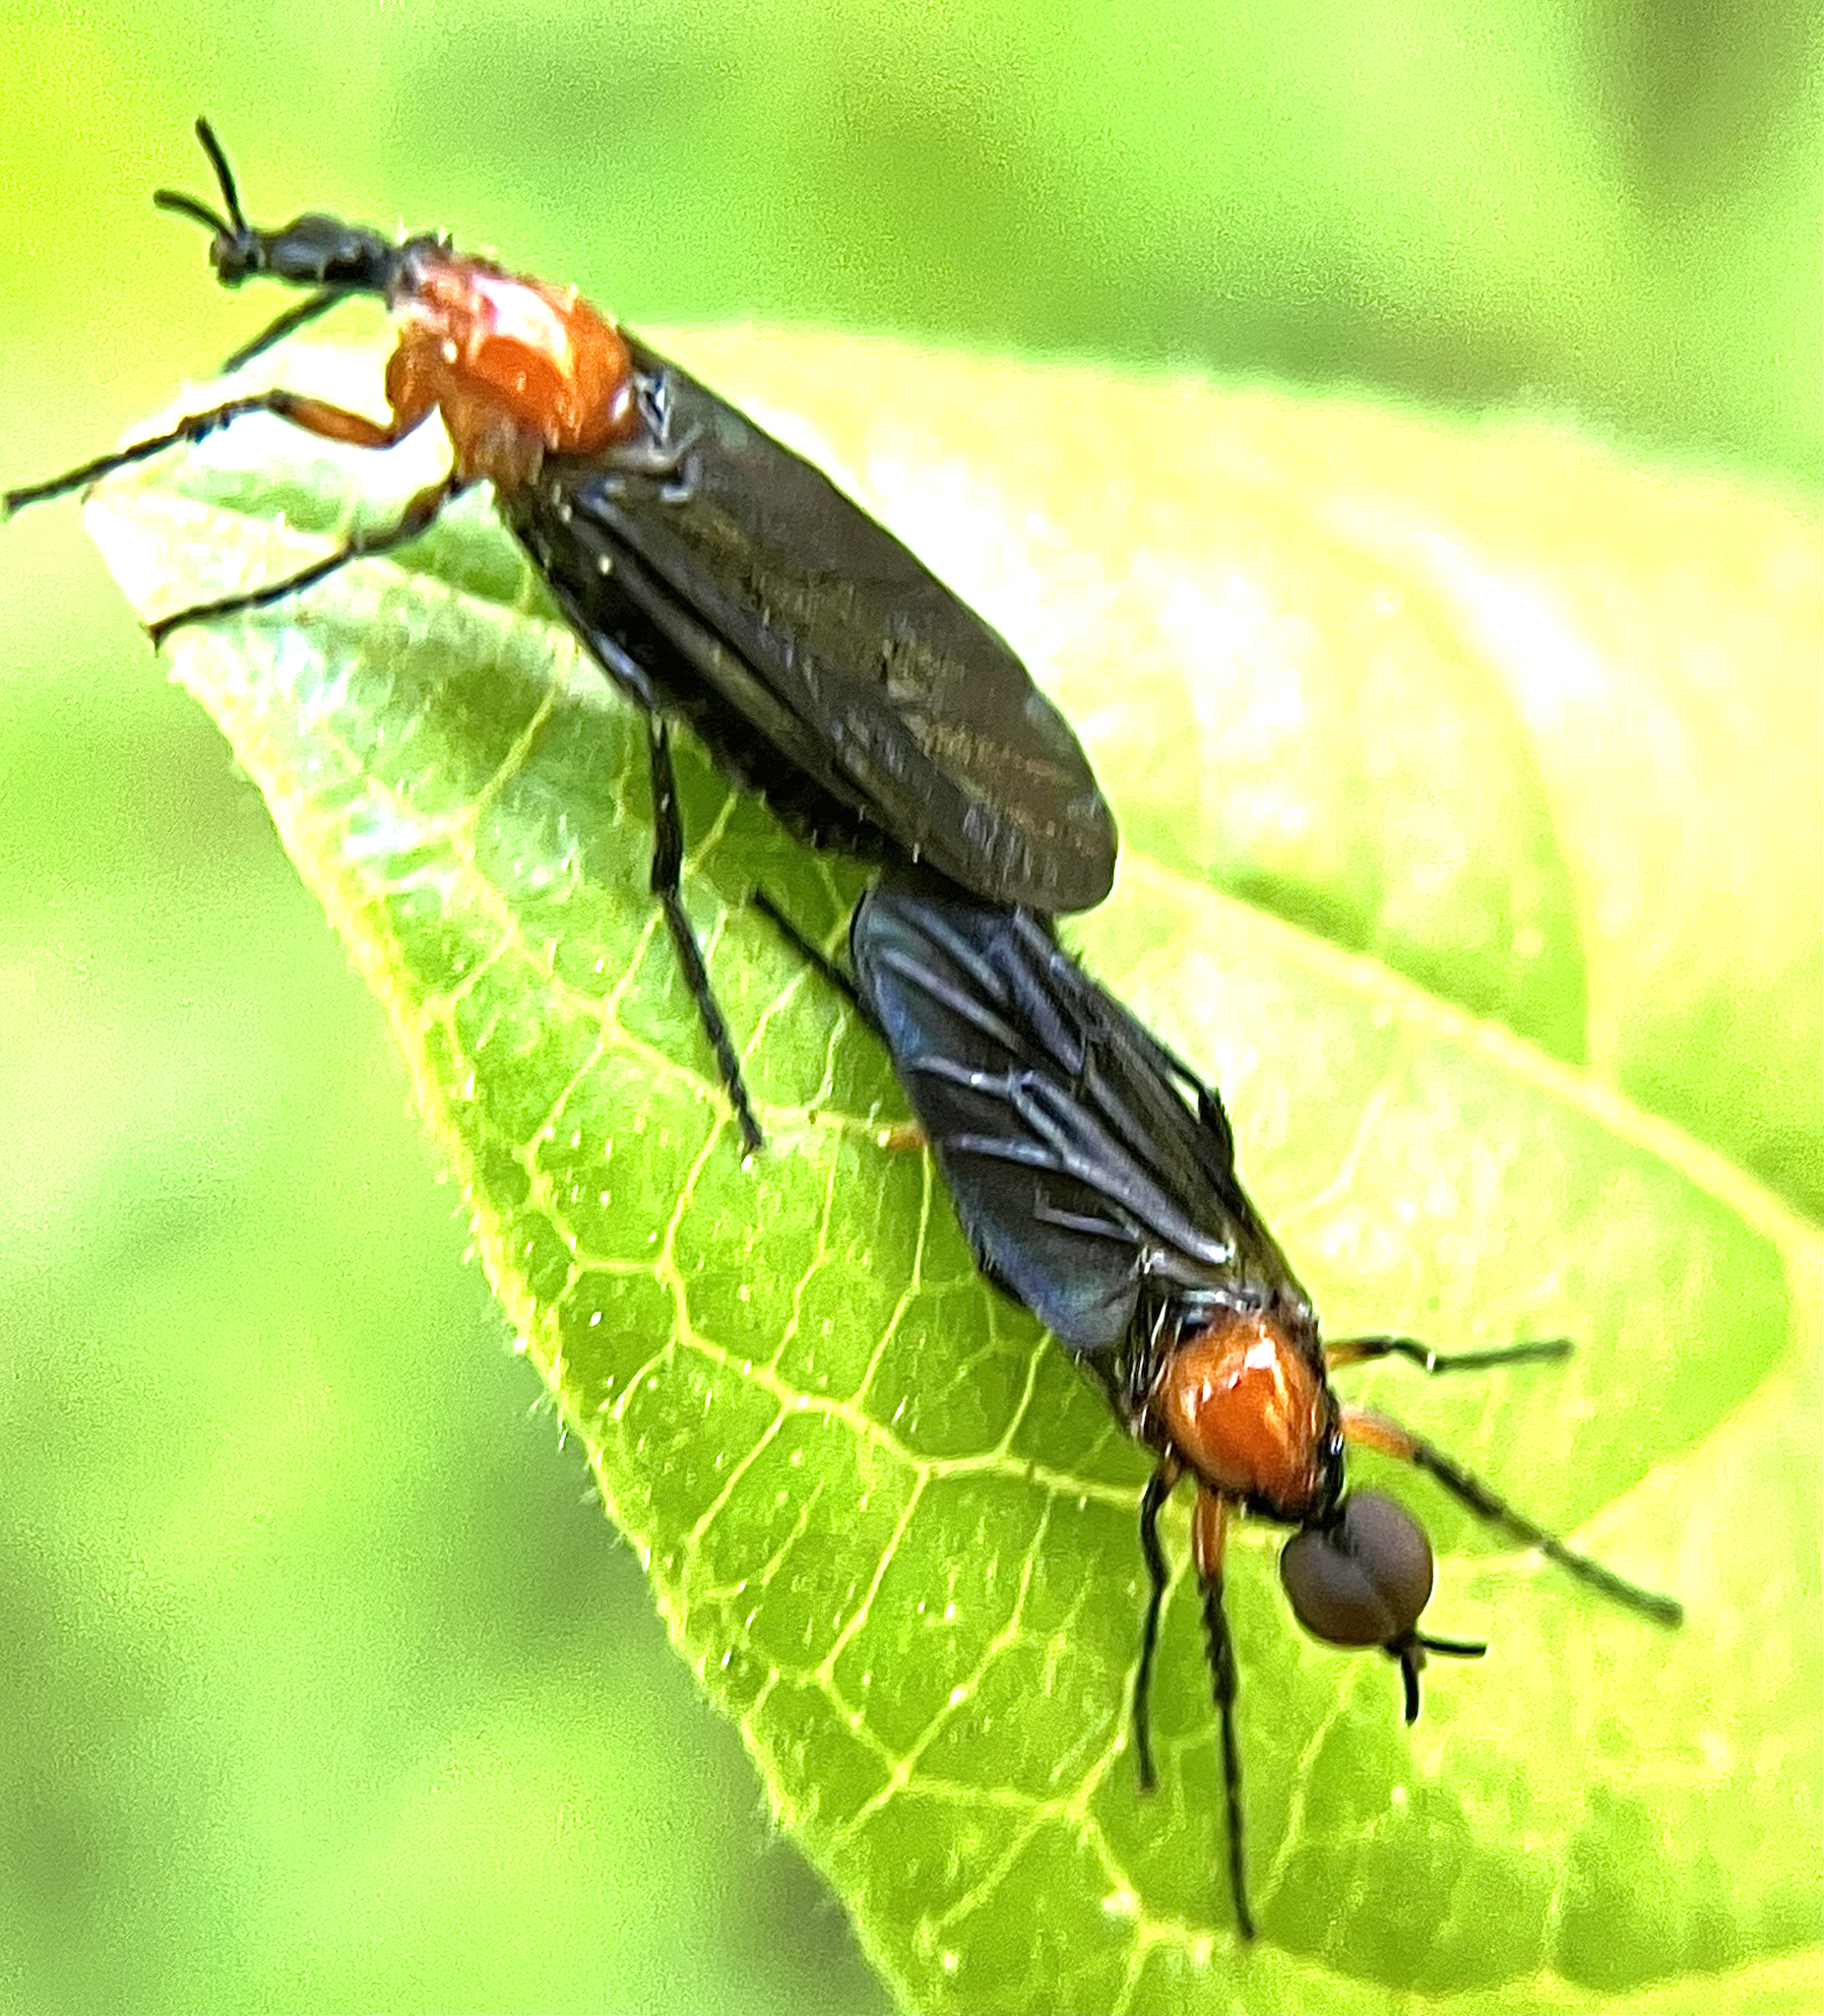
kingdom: Animalia
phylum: Arthropoda
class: Insecta
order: Diptera
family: Bibionidae
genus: Dilophus
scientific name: Dilophus spinipes
